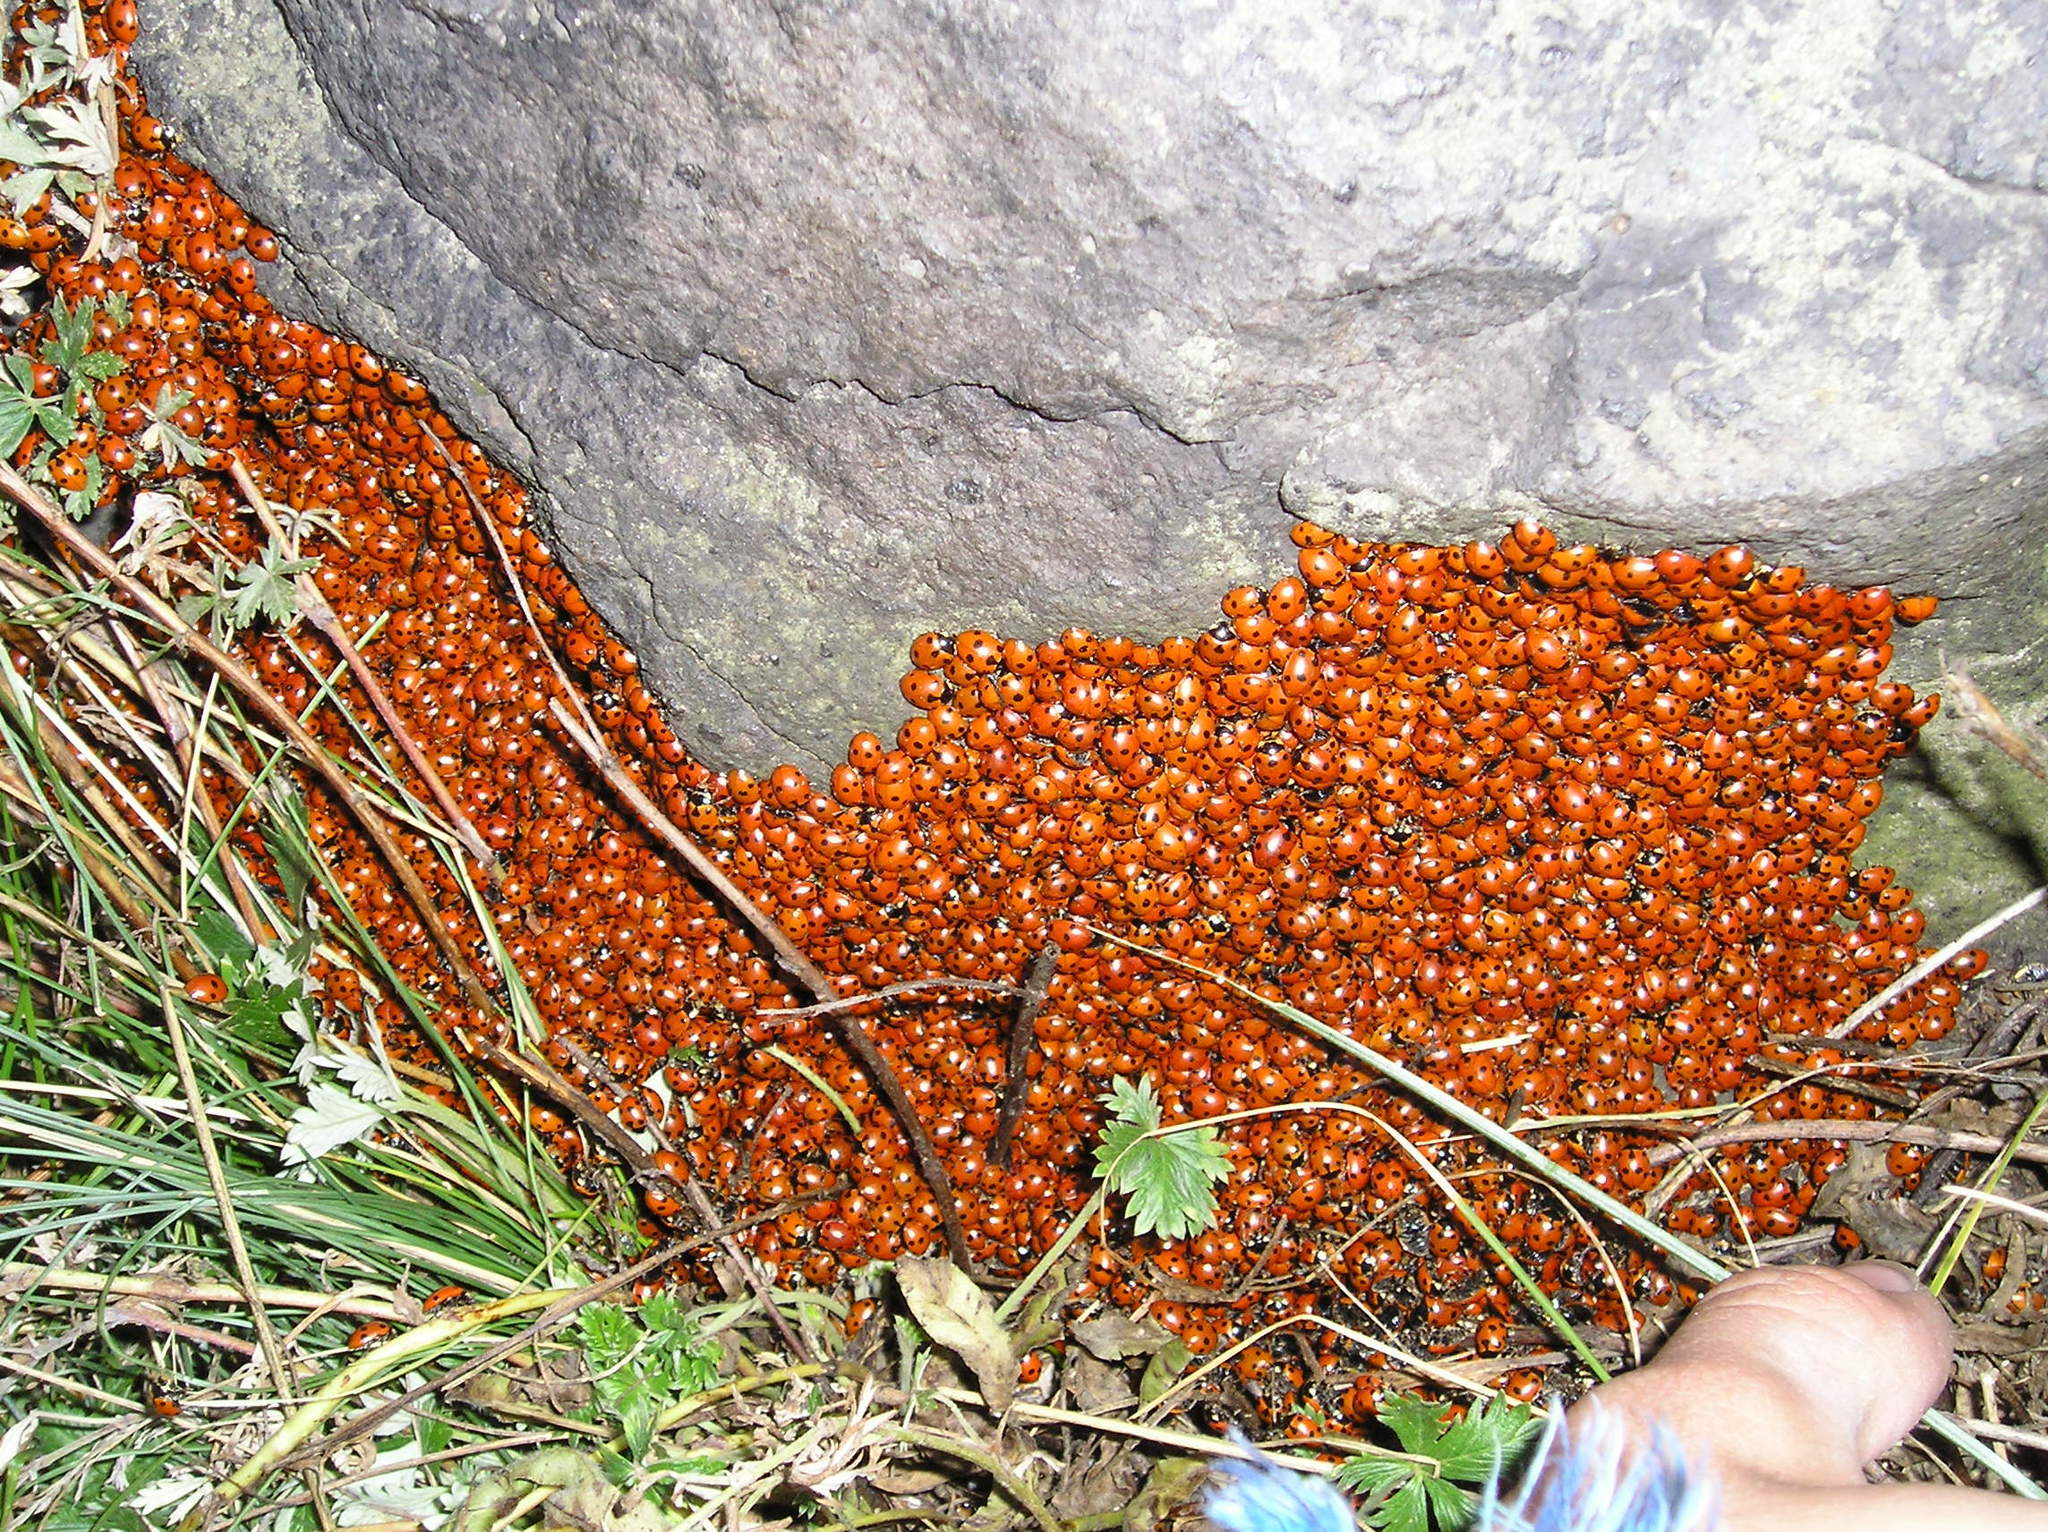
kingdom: Animalia
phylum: Arthropoda
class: Insecta
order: Coleoptera
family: Coccinellidae
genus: Ceratomegilla
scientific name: Ceratomegilla undecimnotata
